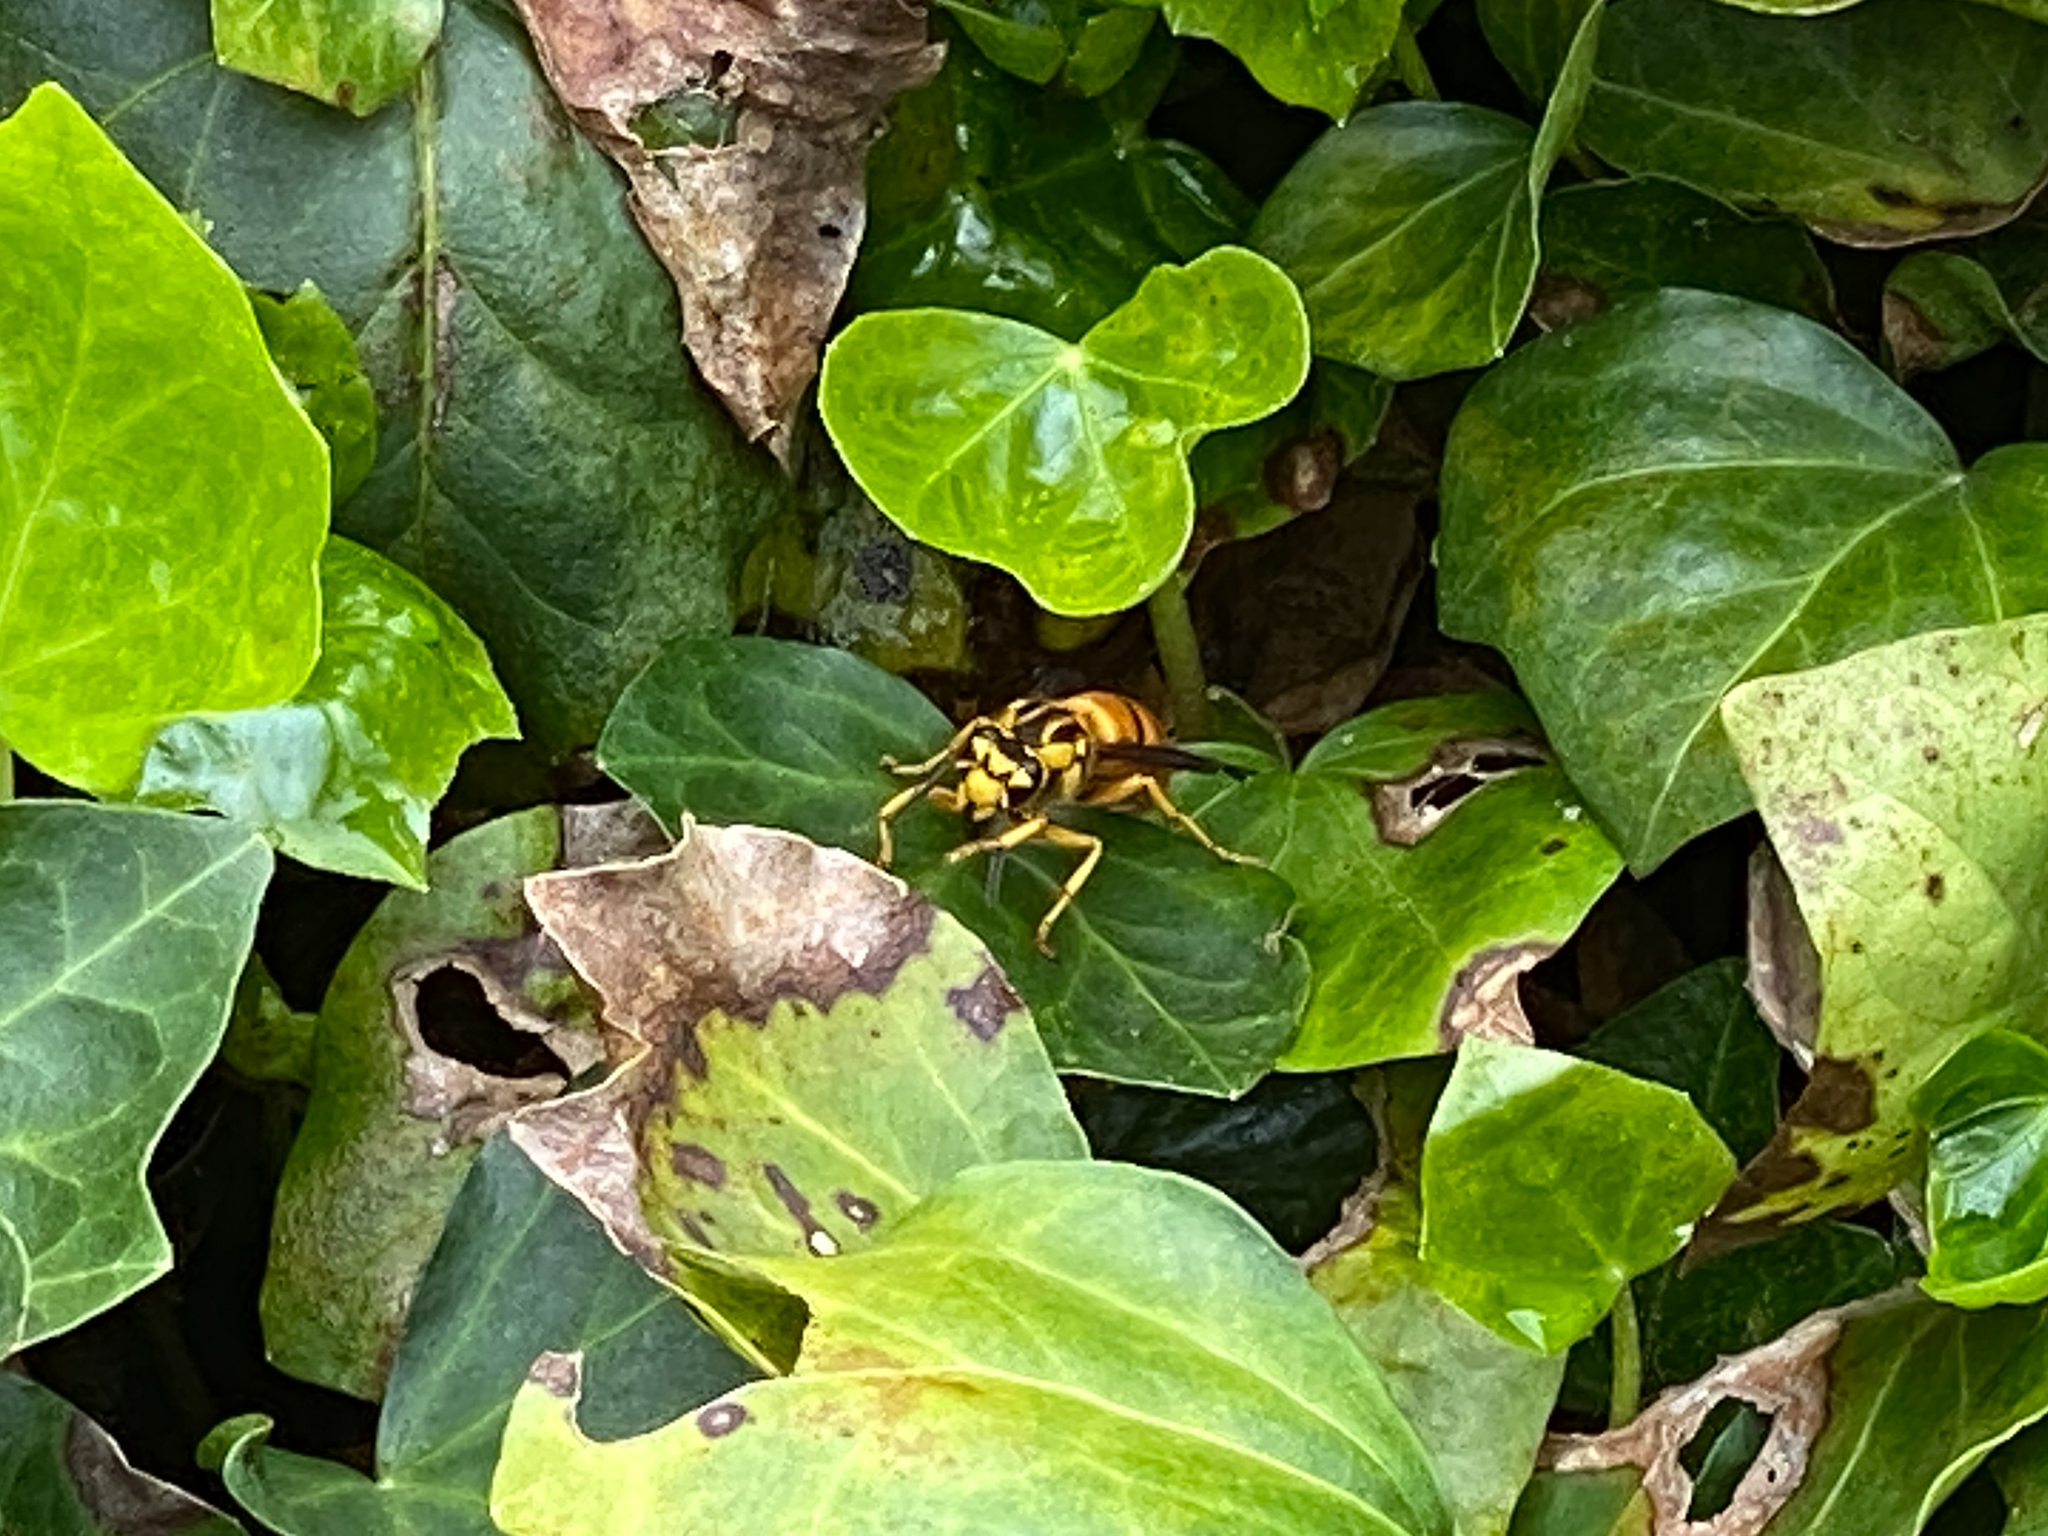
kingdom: Animalia
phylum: Arthropoda
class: Insecta
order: Hymenoptera
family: Vespidae
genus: Vespula
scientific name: Vespula squamosa
